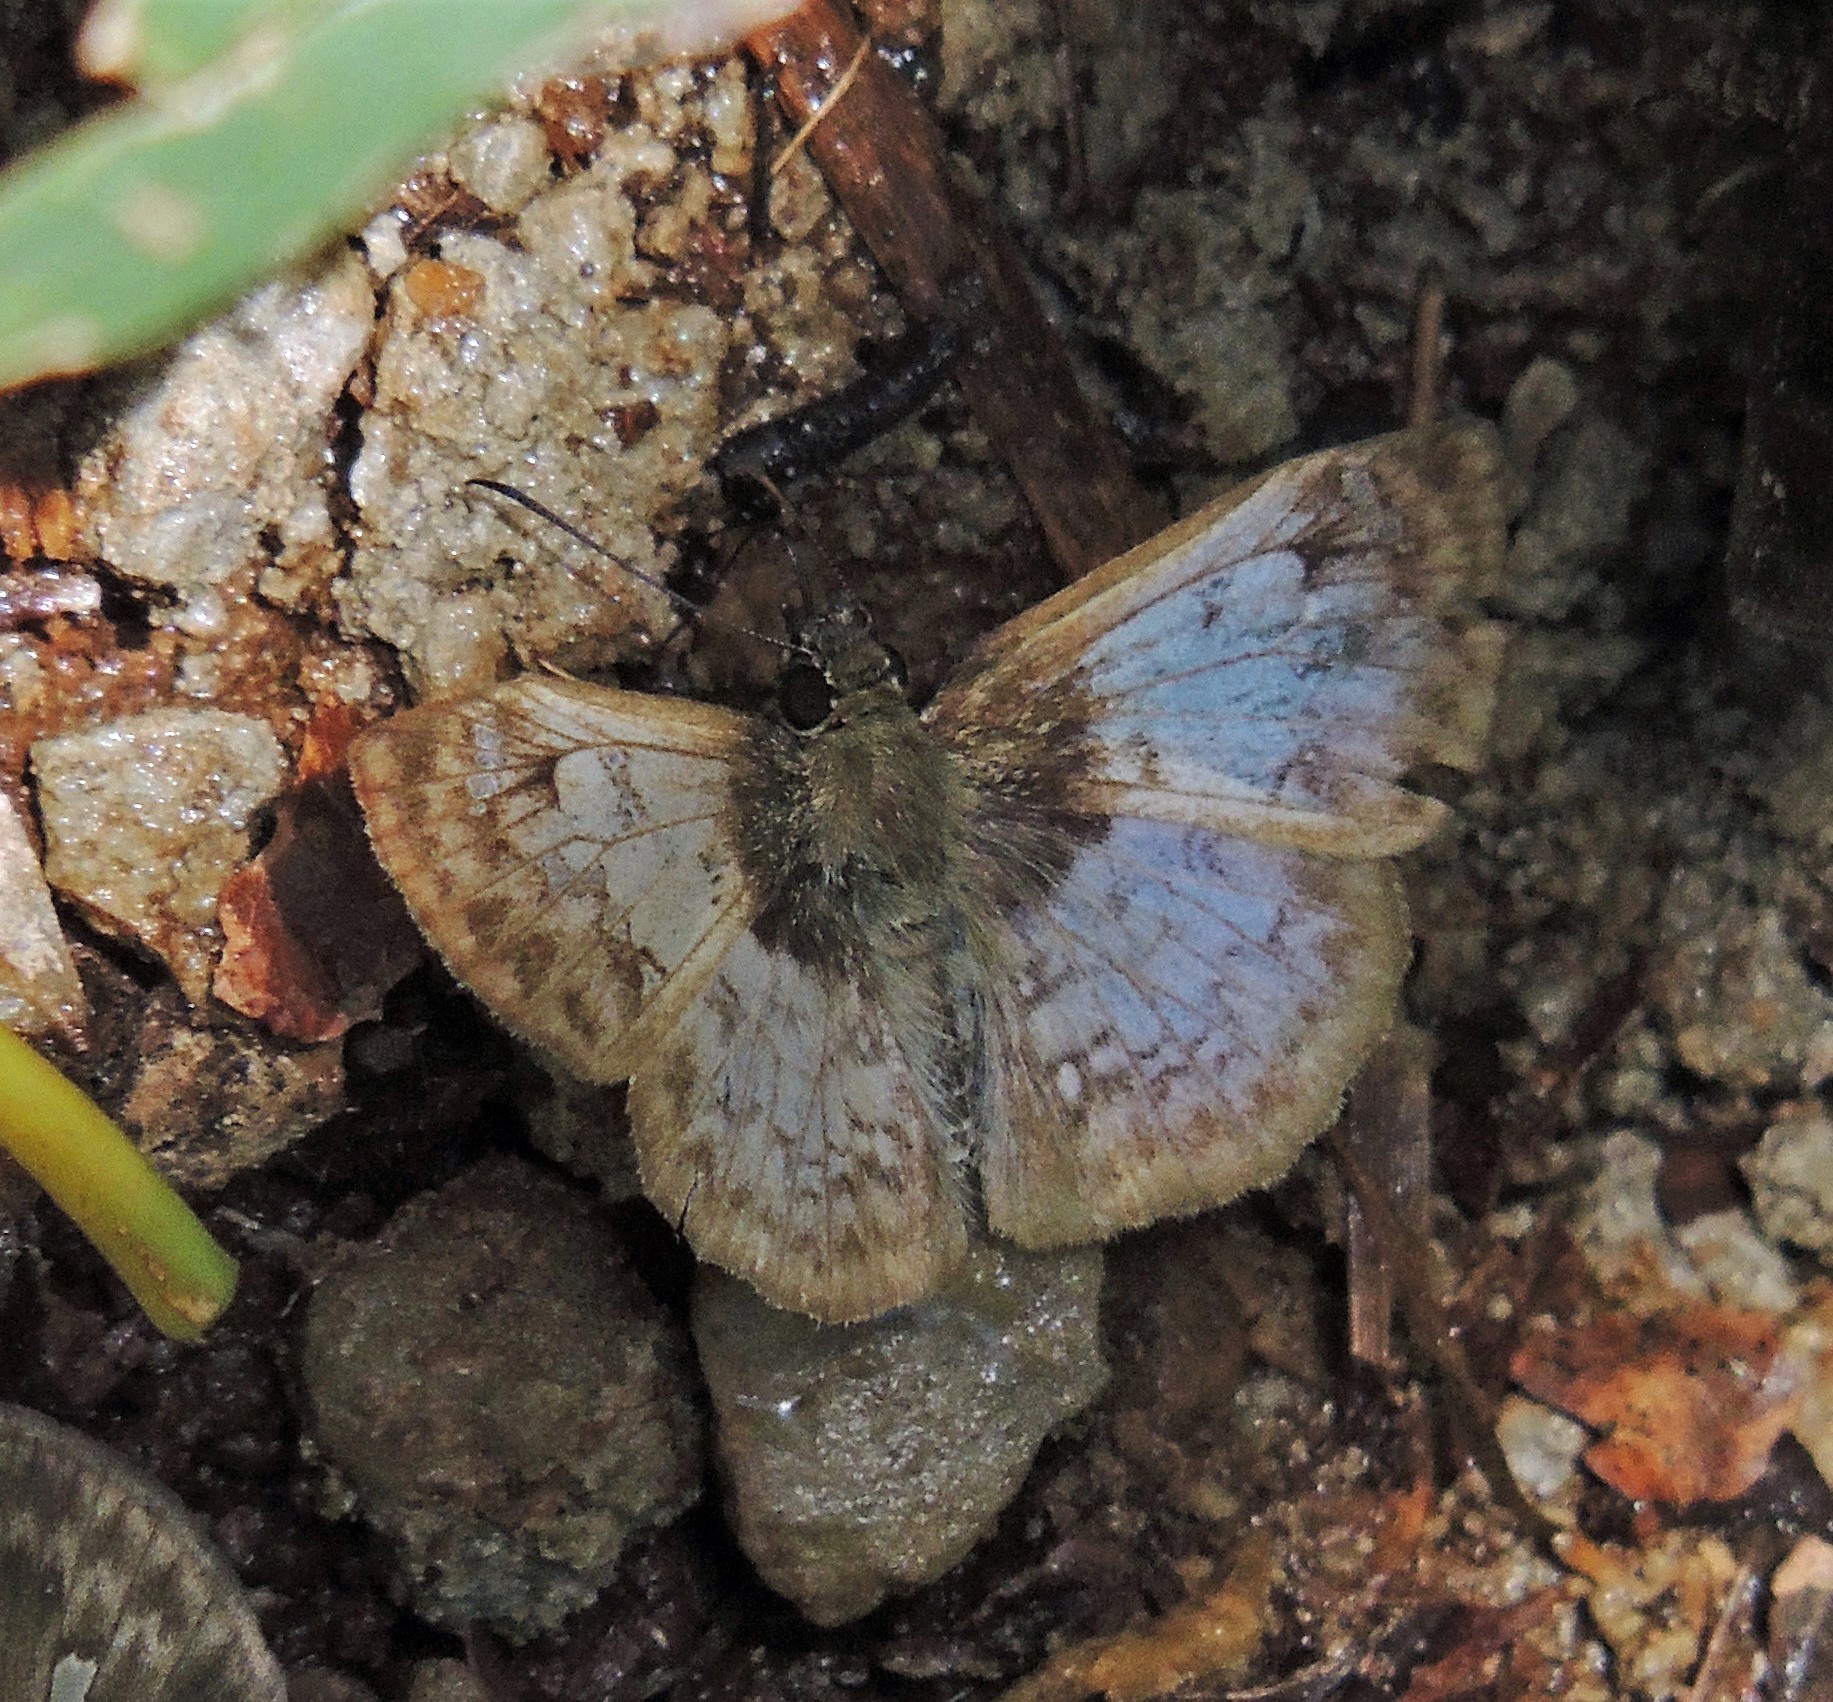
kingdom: Animalia
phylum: Arthropoda
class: Insecta
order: Lepidoptera
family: Hesperiidae
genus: Canesia
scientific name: Canesia
